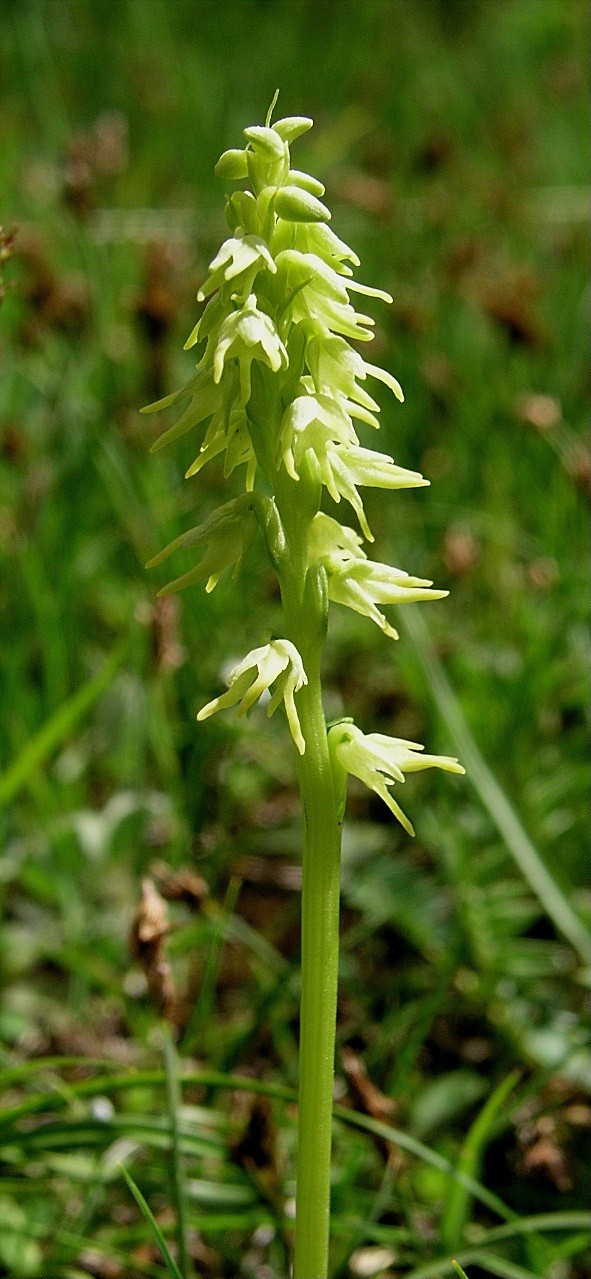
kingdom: Plantae
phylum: Tracheophyta
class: Liliopsida
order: Asparagales
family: Orchidaceae
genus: Herminium
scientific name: Herminium monorchis
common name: Musk orchid
